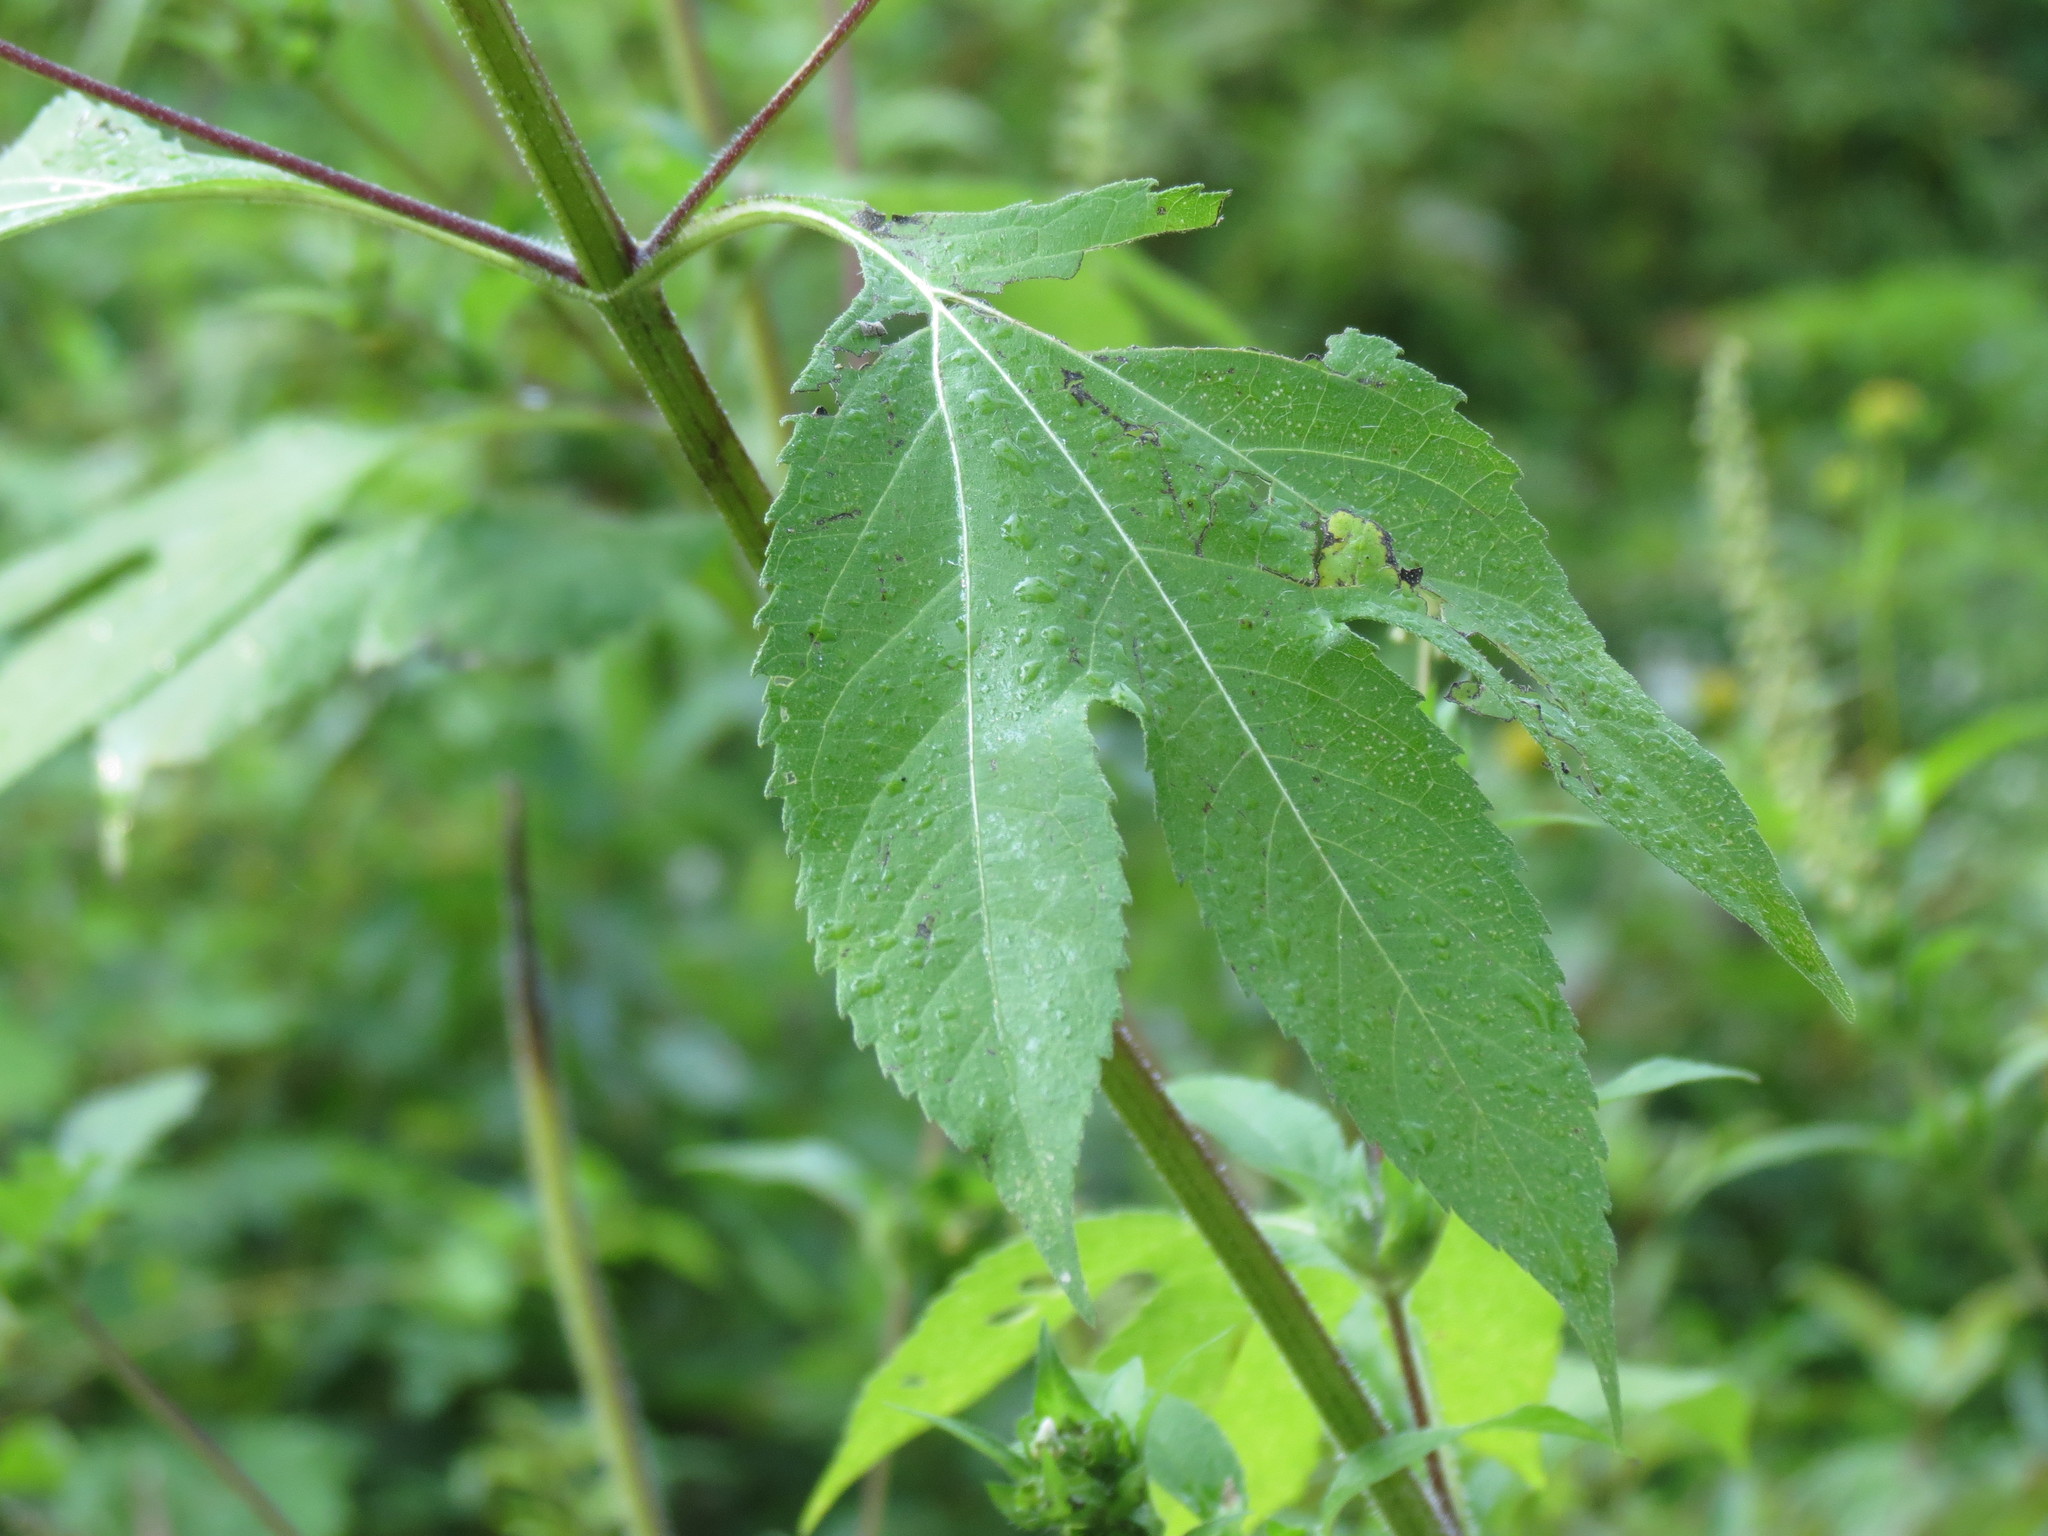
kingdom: Plantae
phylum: Tracheophyta
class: Magnoliopsida
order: Asterales
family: Asteraceae
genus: Ambrosia
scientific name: Ambrosia trifida
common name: Giant ragweed
